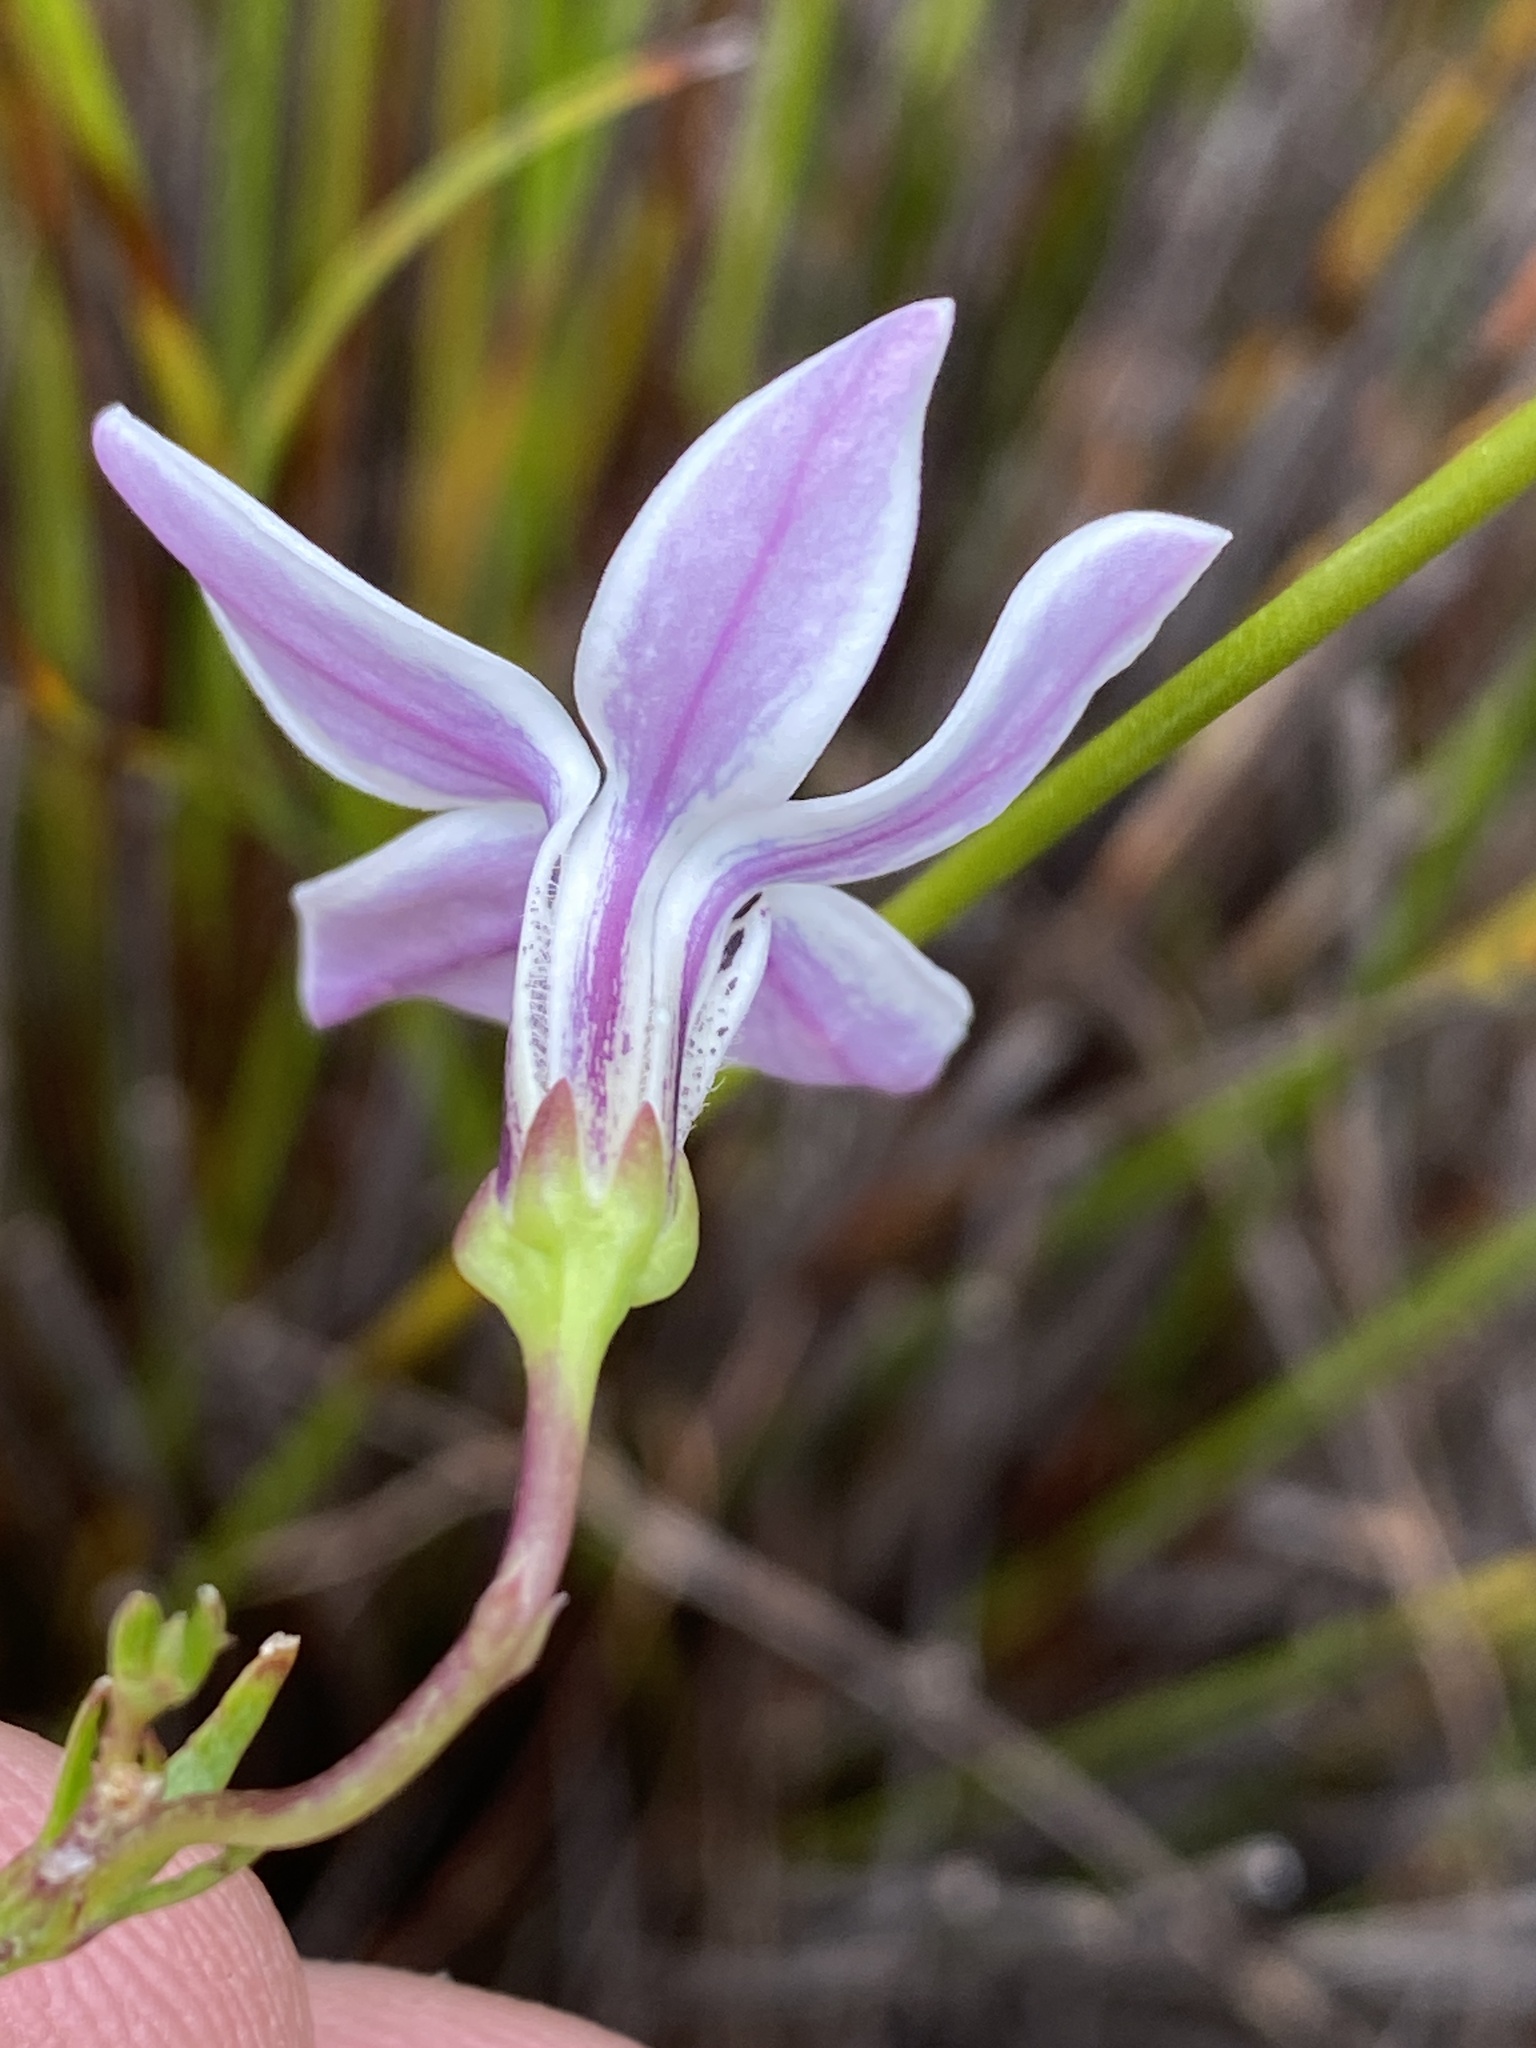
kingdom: Plantae
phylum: Tracheophyta
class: Magnoliopsida
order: Asterales
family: Campanulaceae
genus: Cyphia
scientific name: Cyphia volubilis
